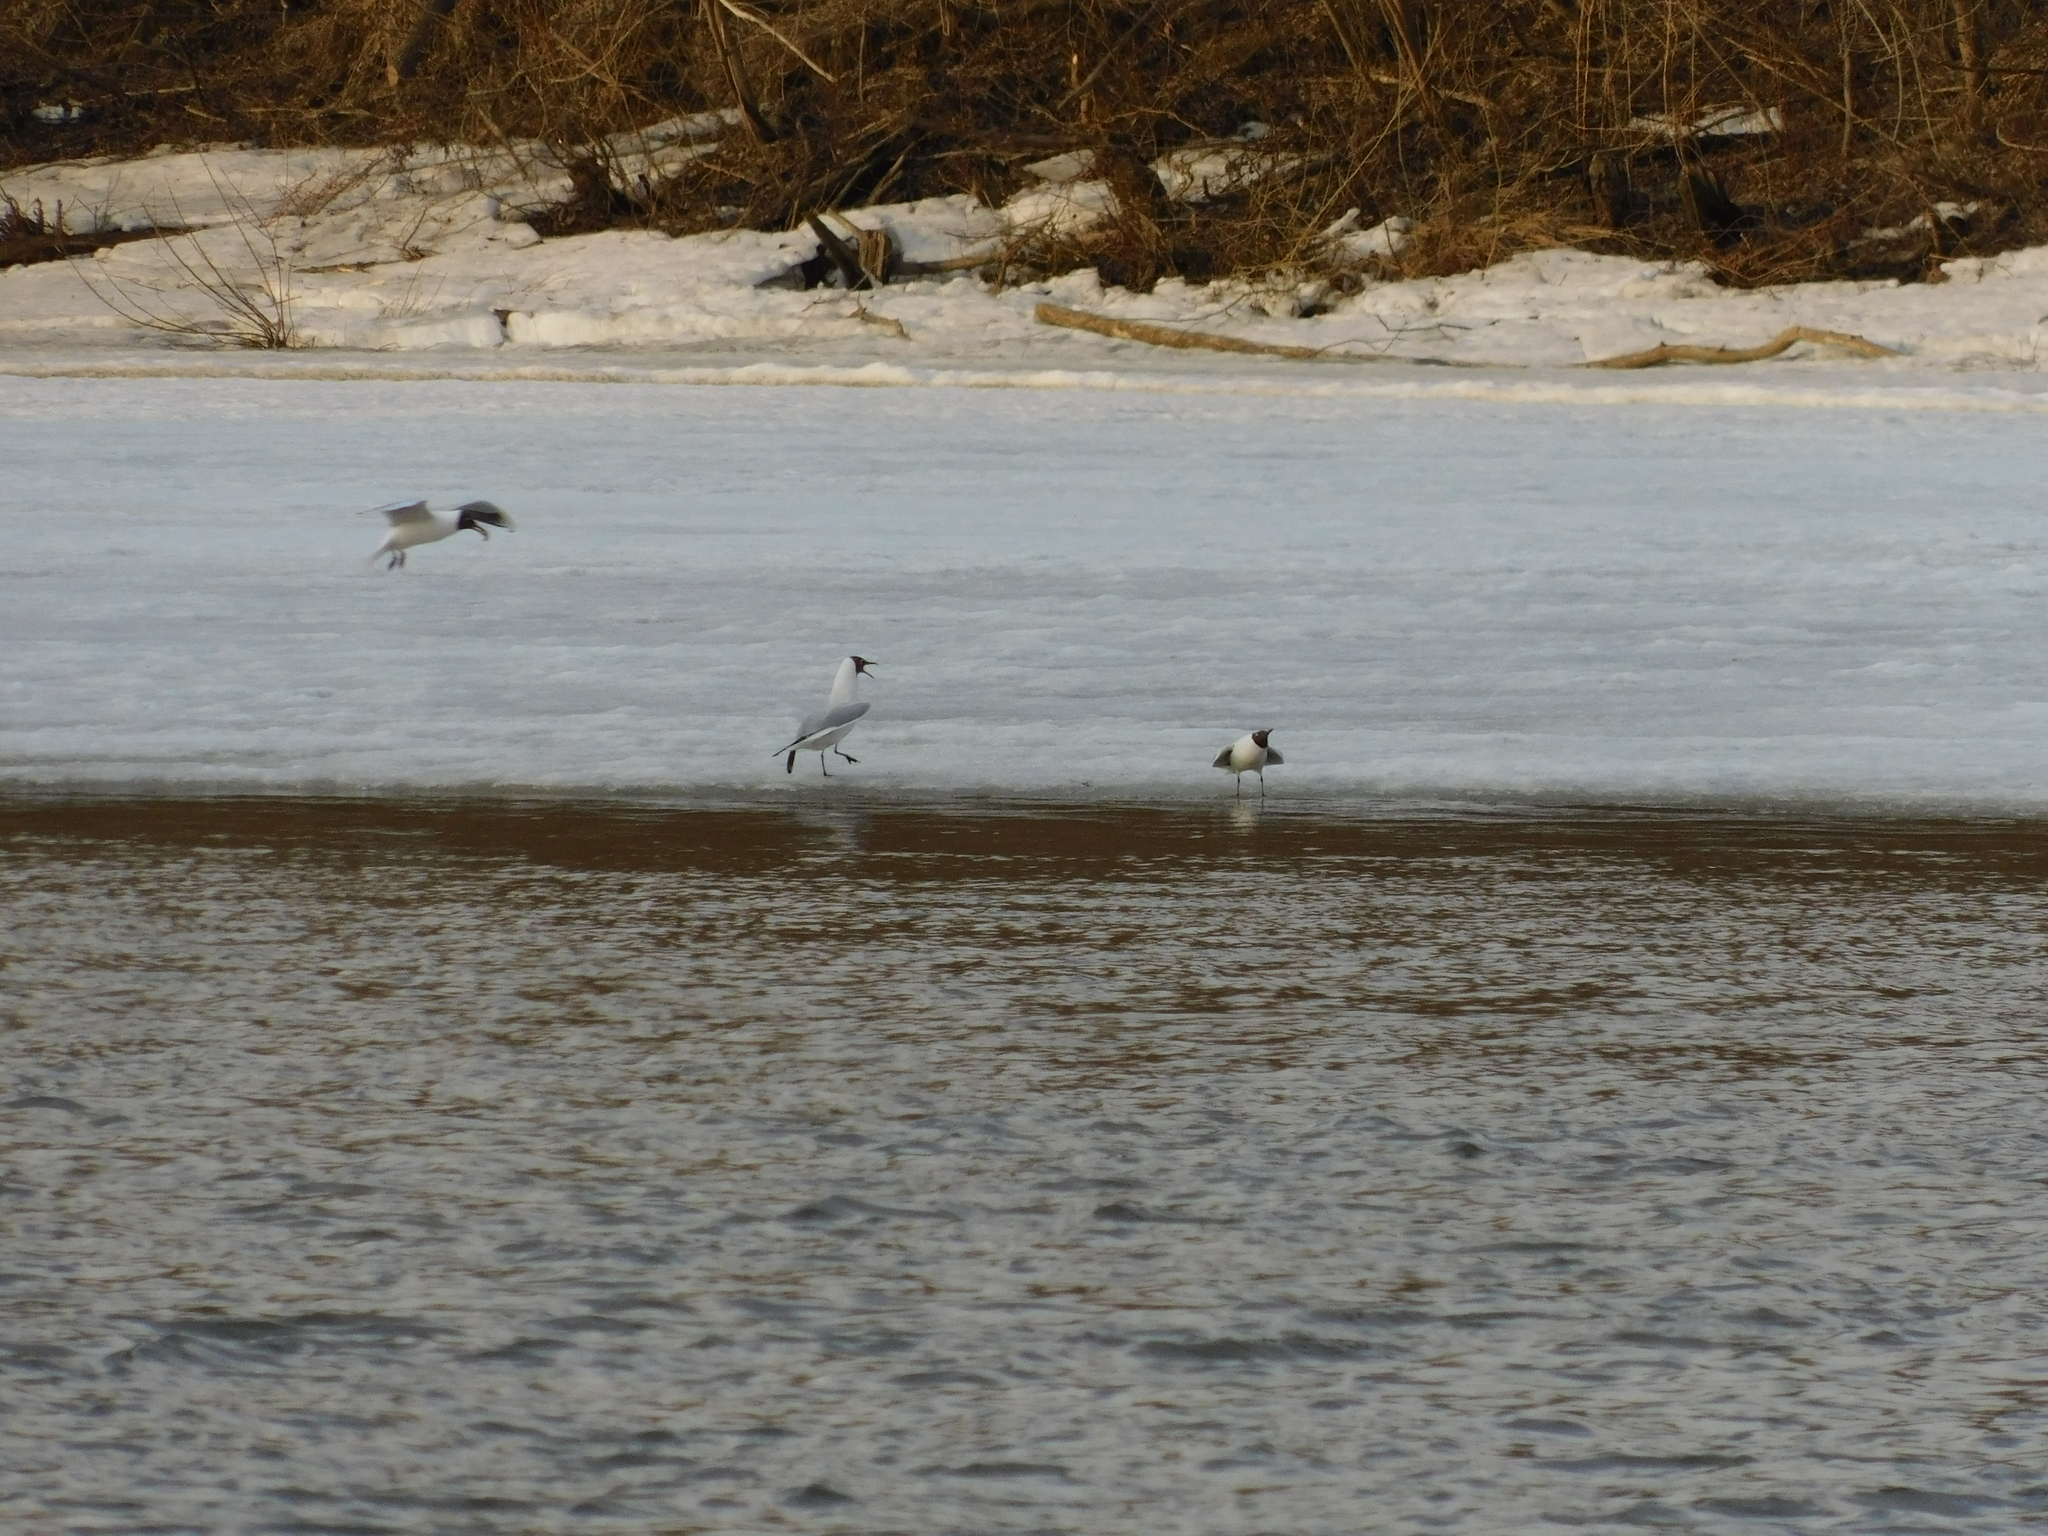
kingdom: Animalia
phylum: Chordata
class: Aves
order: Charadriiformes
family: Laridae
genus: Chroicocephalus
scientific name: Chroicocephalus ridibundus
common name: Black-headed gull
